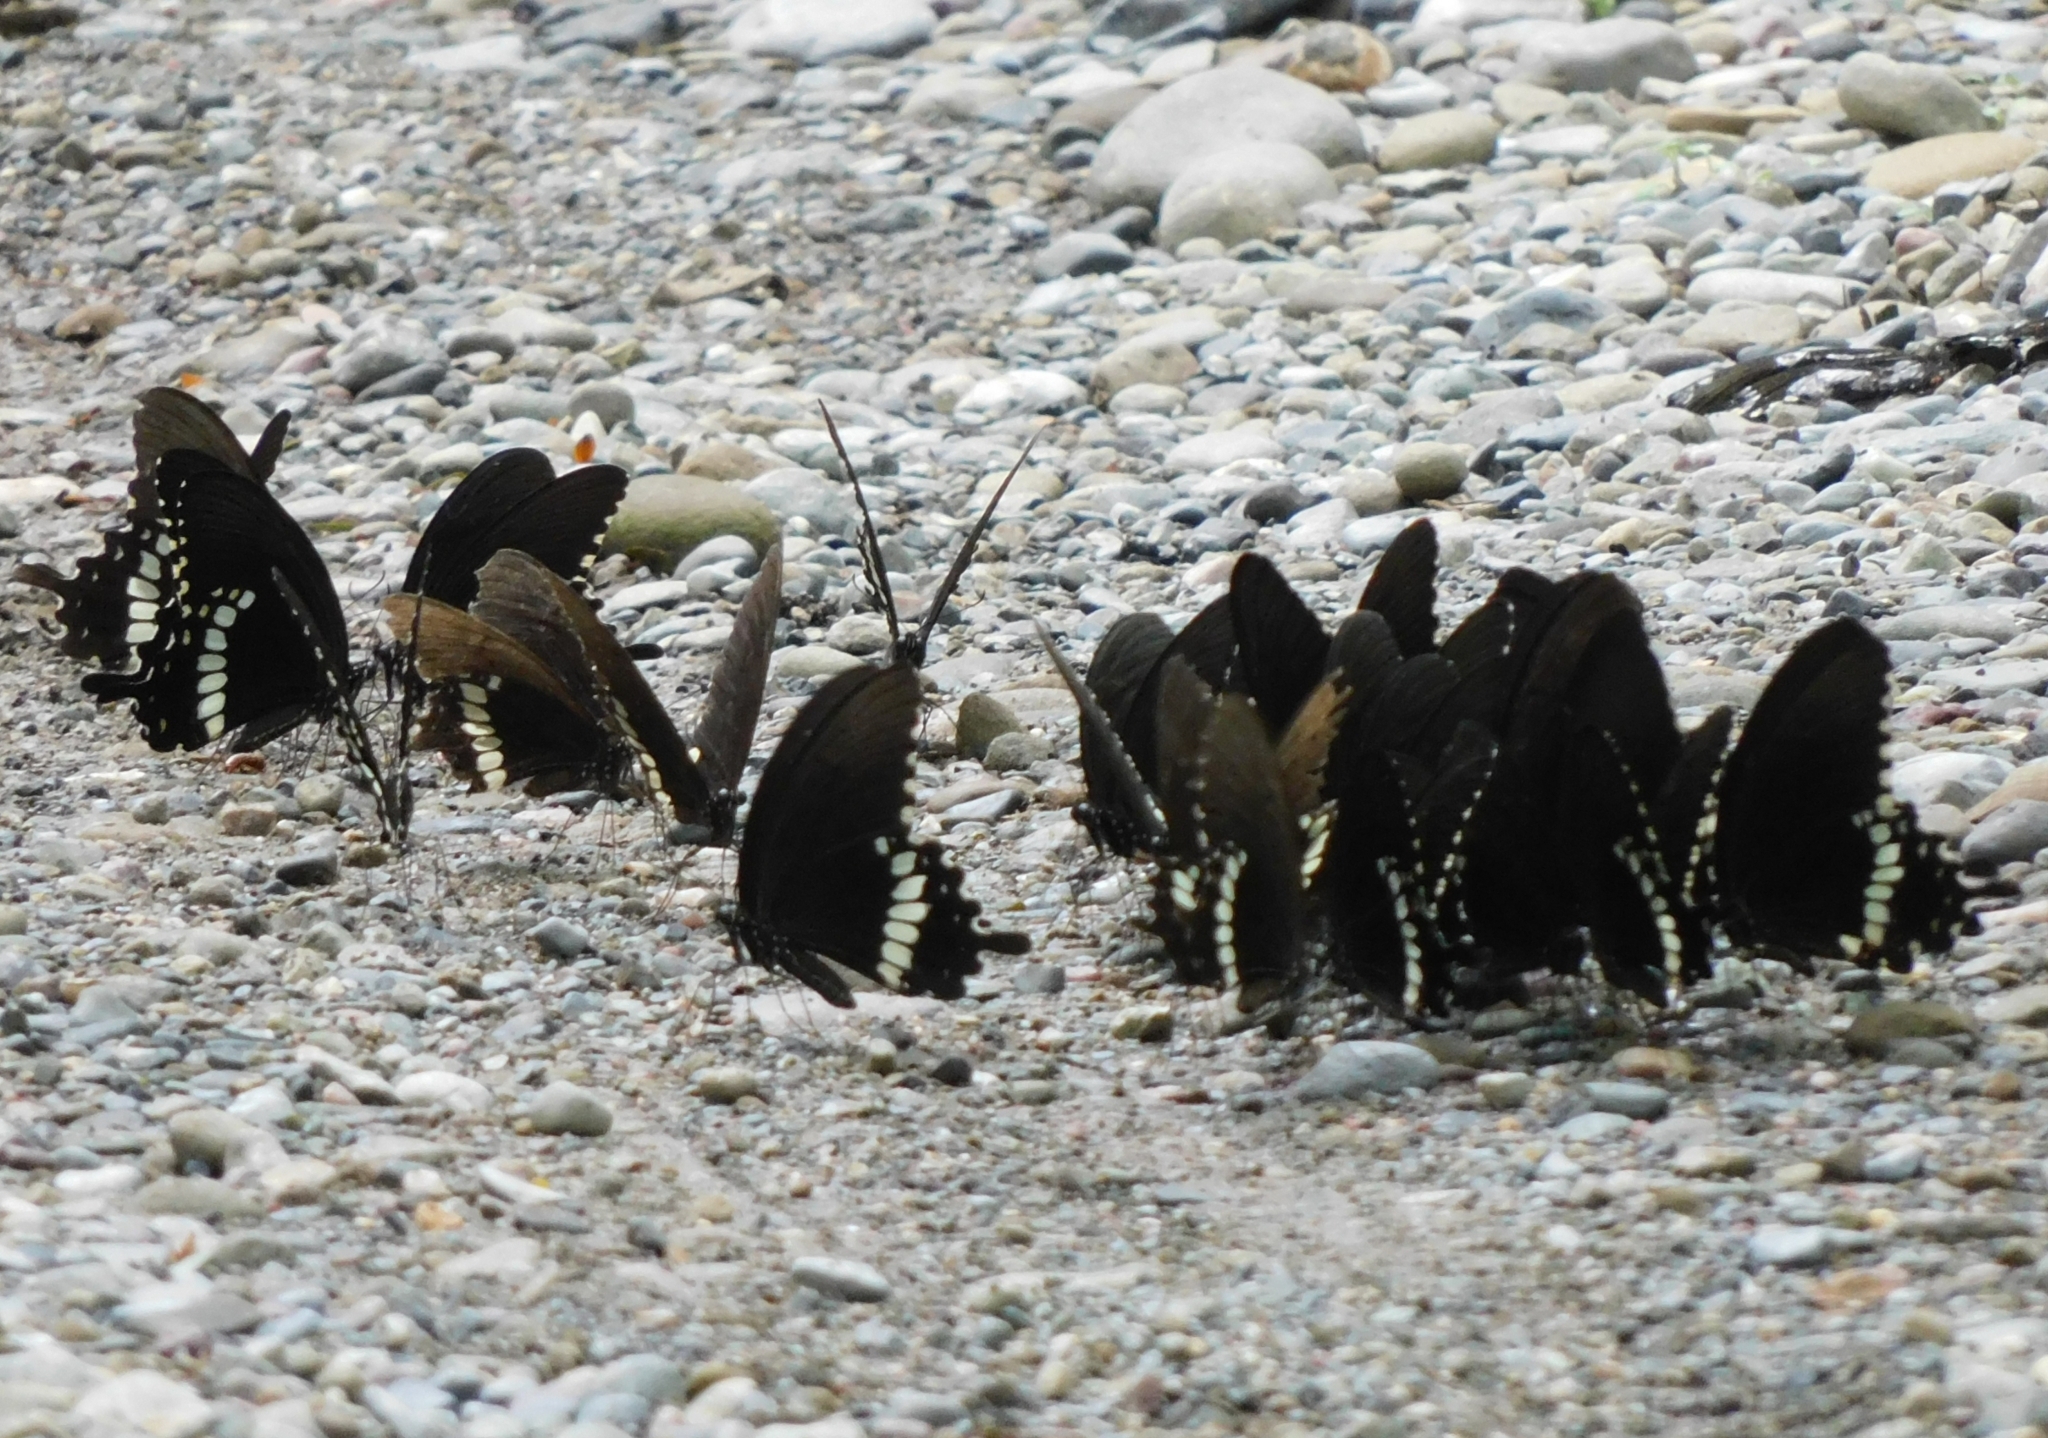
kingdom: Animalia
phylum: Arthropoda
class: Insecta
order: Lepidoptera
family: Papilionidae
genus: Papilio
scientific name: Papilio polytes
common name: Common mormon
